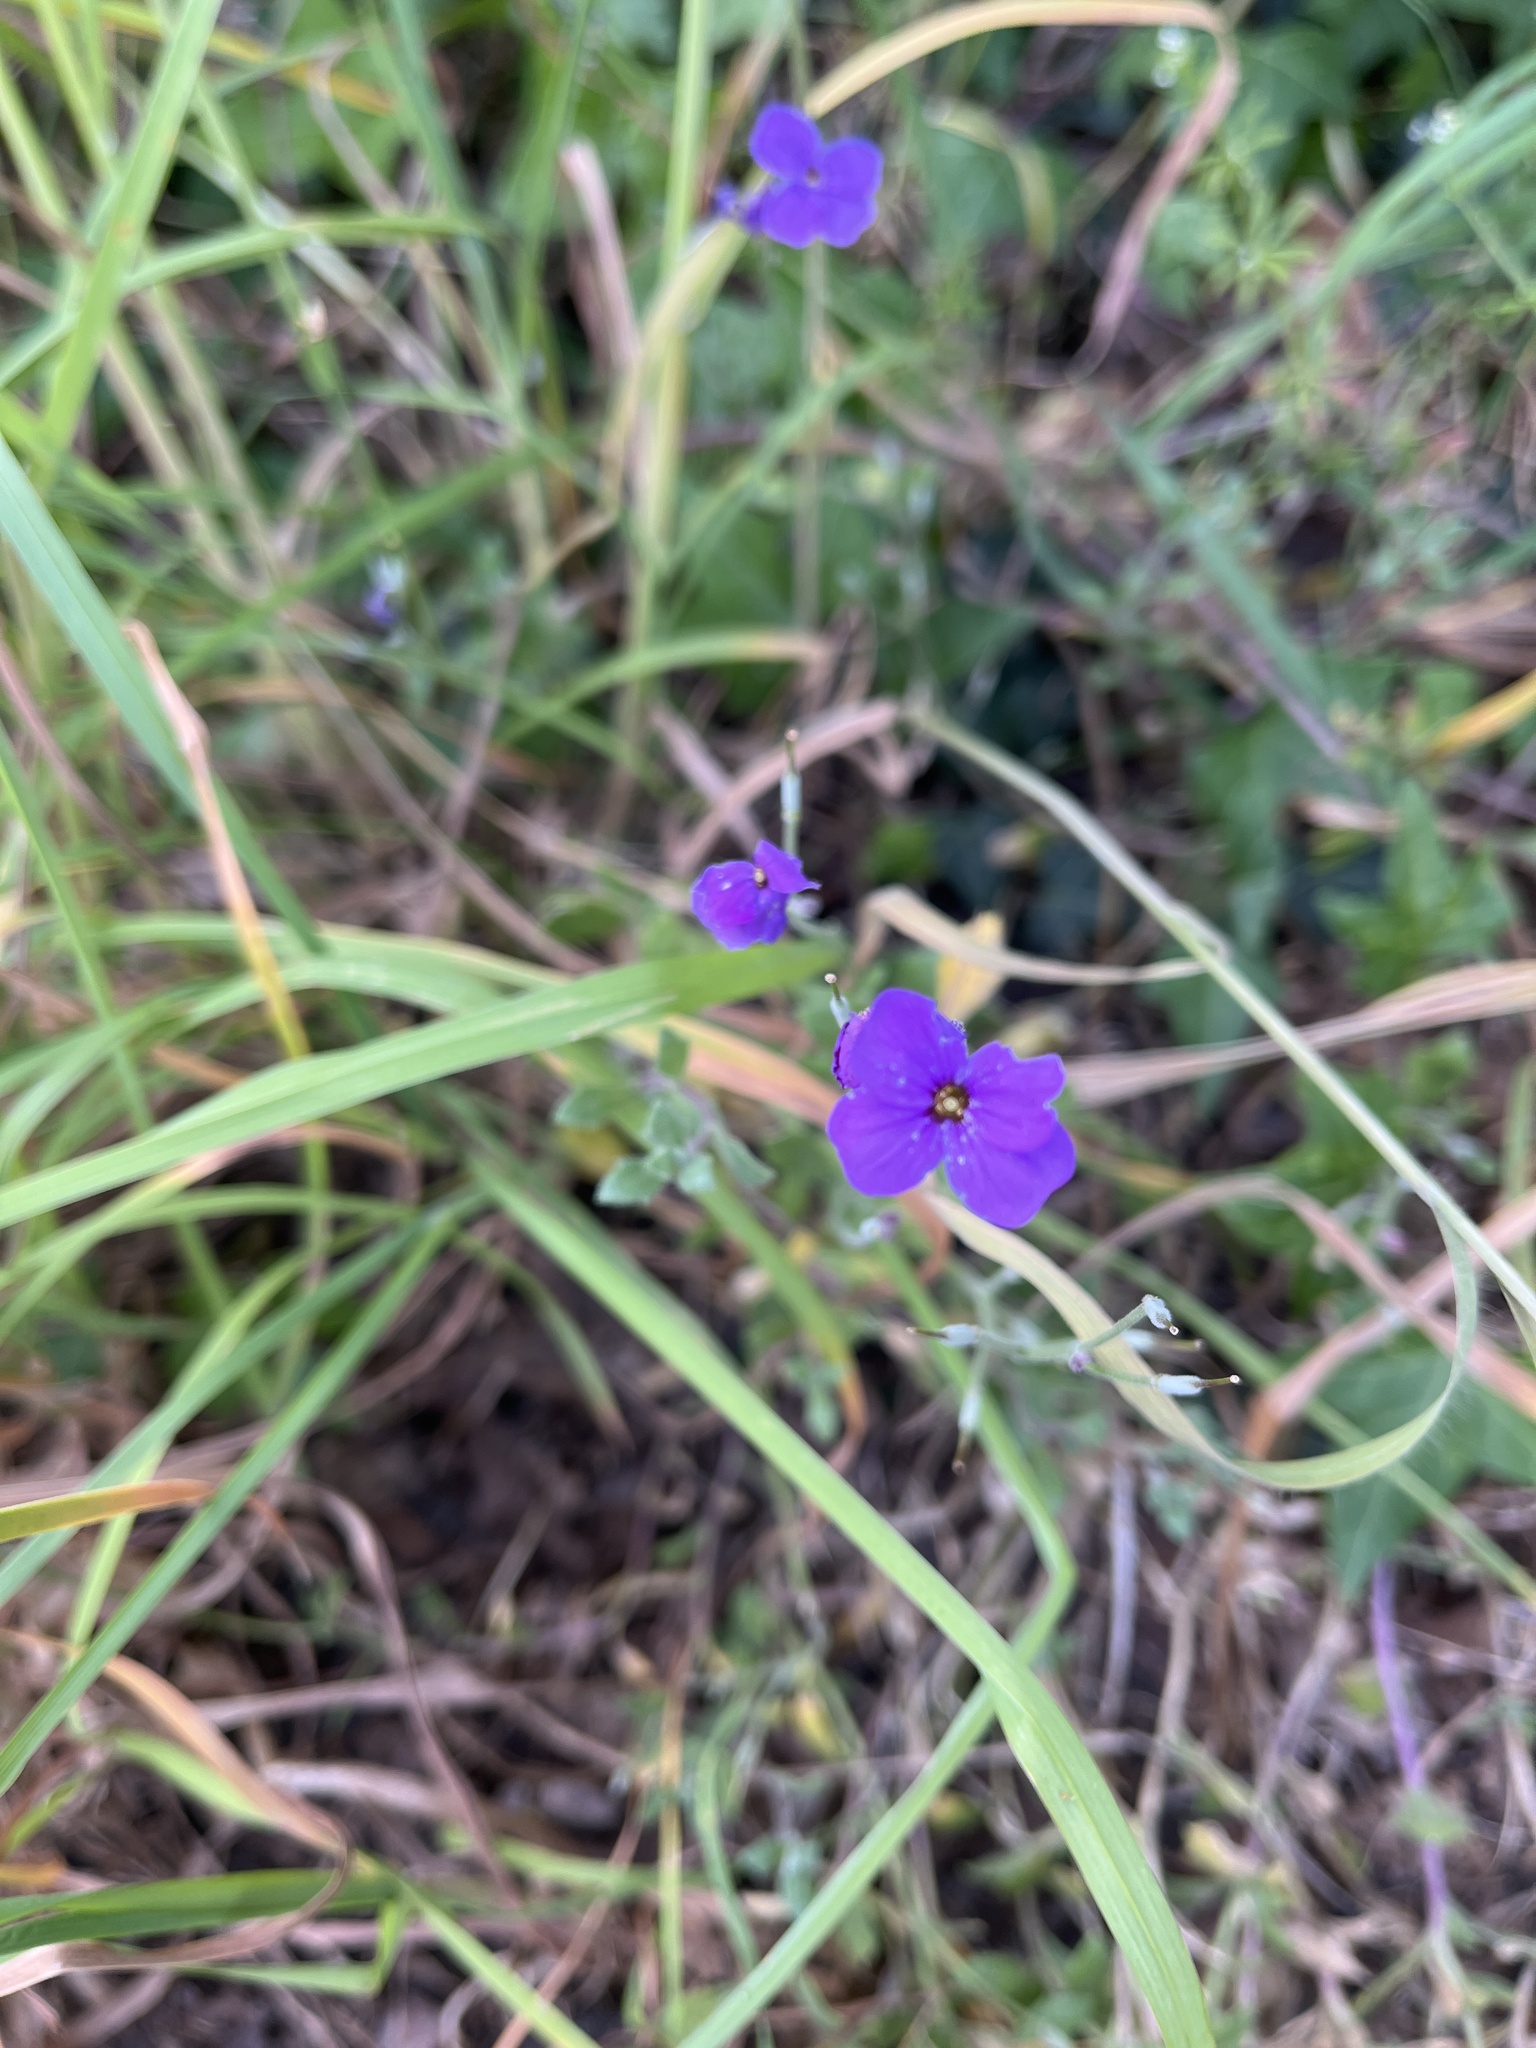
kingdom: Plantae
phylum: Tracheophyta
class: Magnoliopsida
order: Brassicales
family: Brassicaceae
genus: Aubrieta
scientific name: Aubrieta deltoidea
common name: Aubretia
